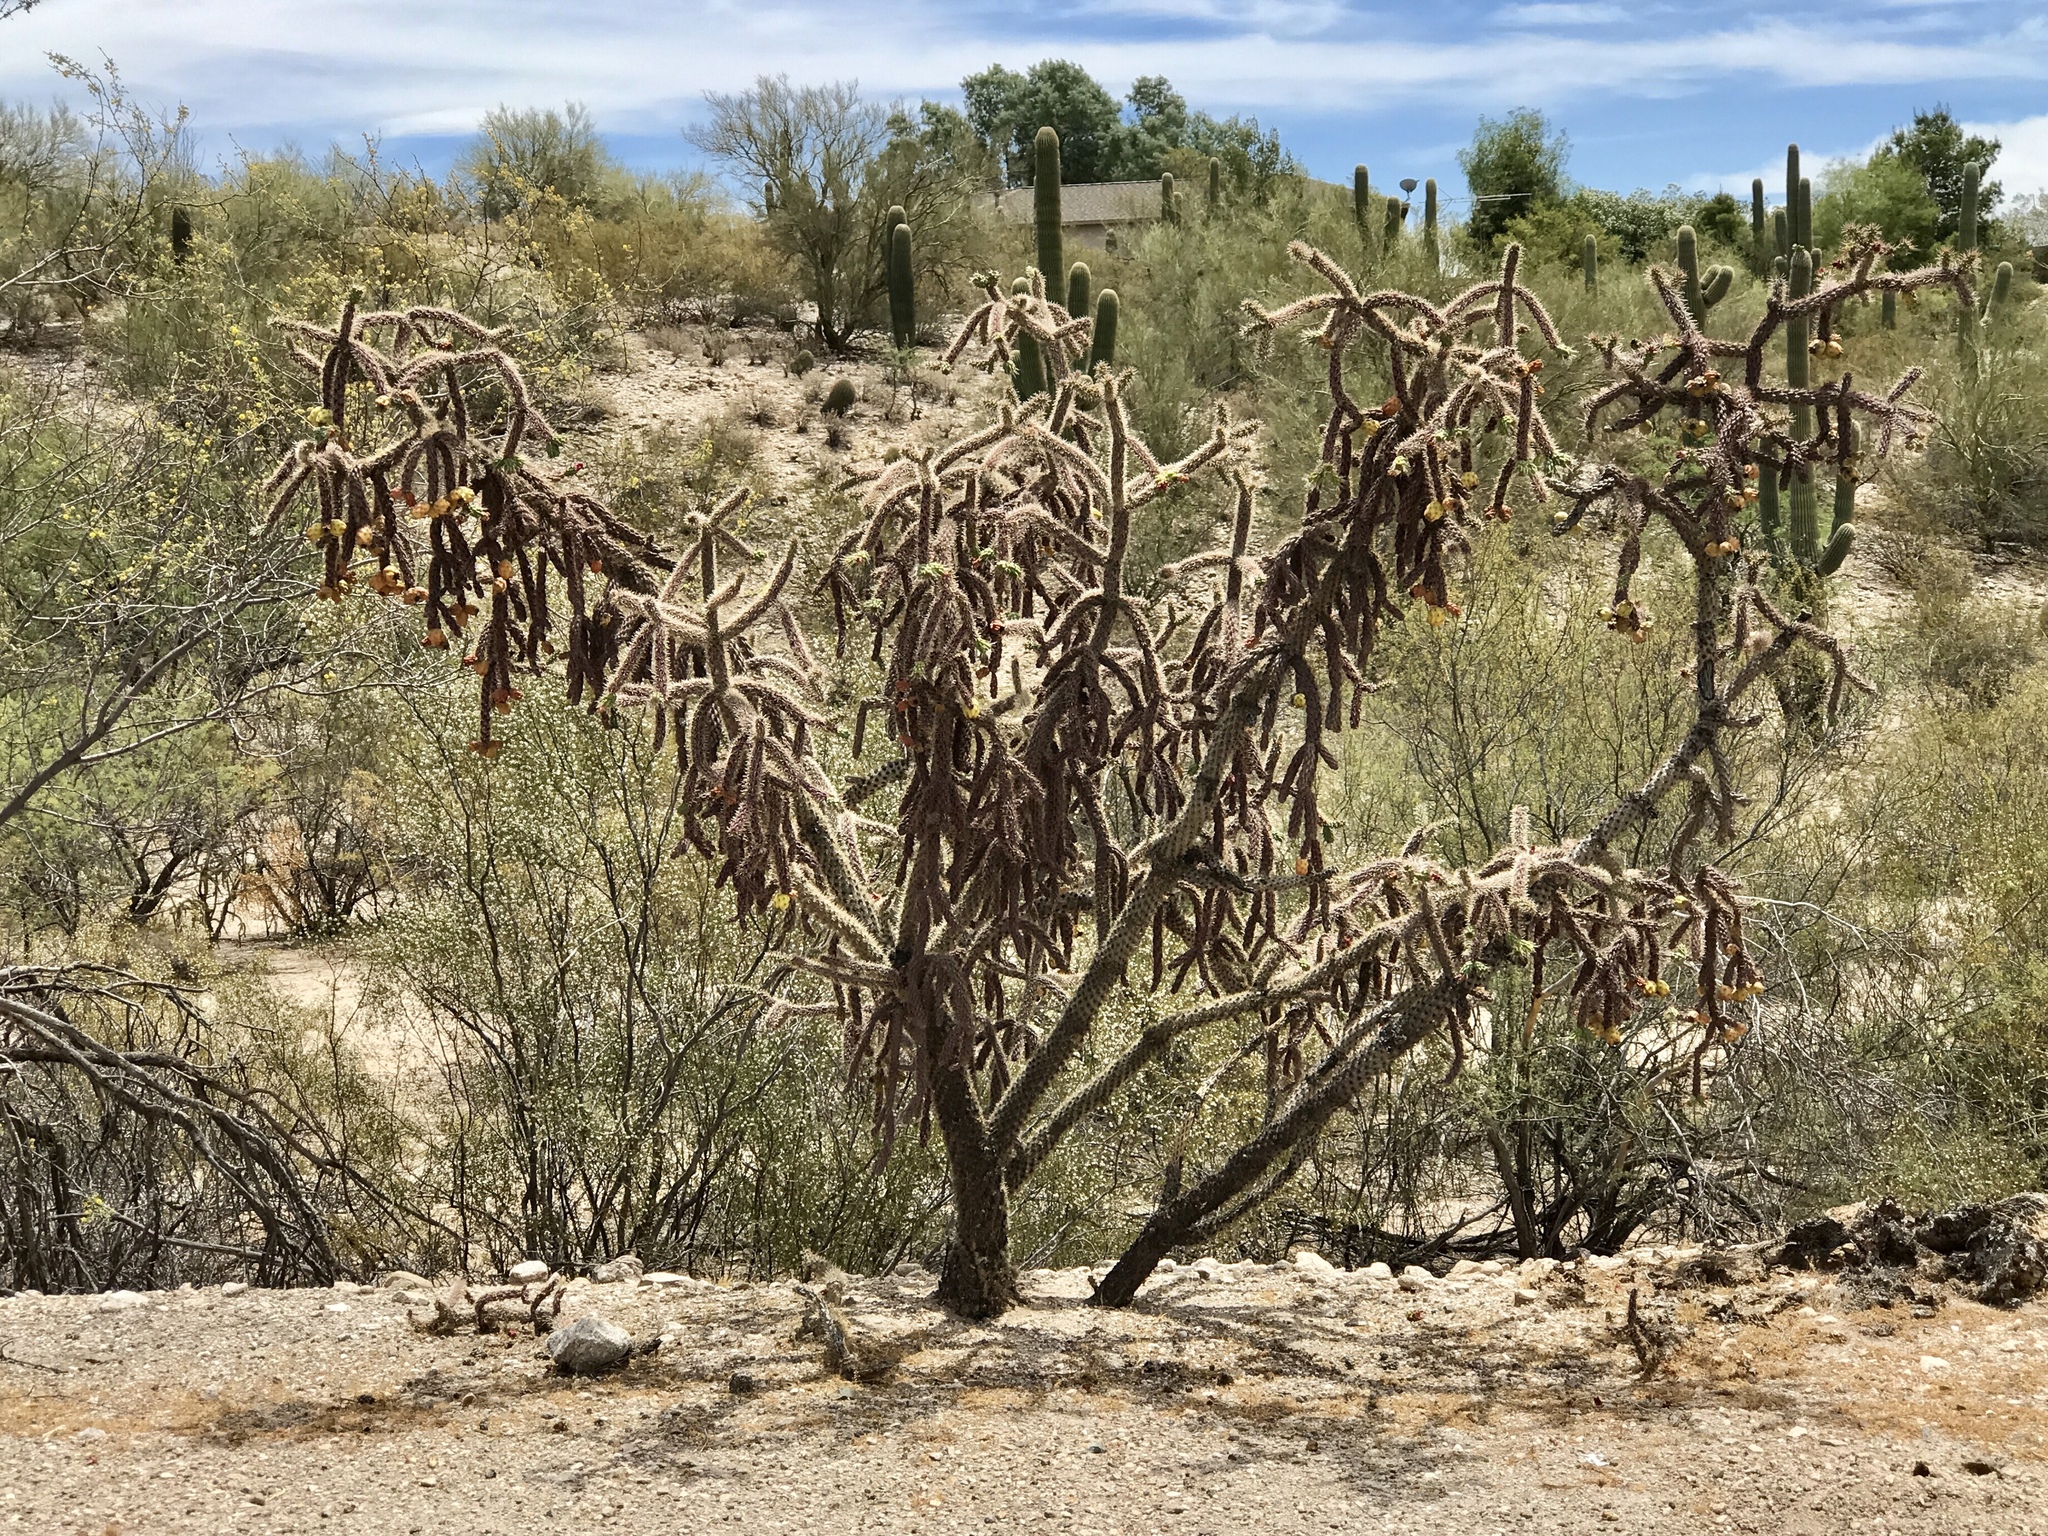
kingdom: Plantae
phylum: Tracheophyta
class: Magnoliopsida
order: Caryophyllales
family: Cactaceae
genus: Cylindropuntia
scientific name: Cylindropuntia acanthocarpa
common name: Buckhorn cholla
